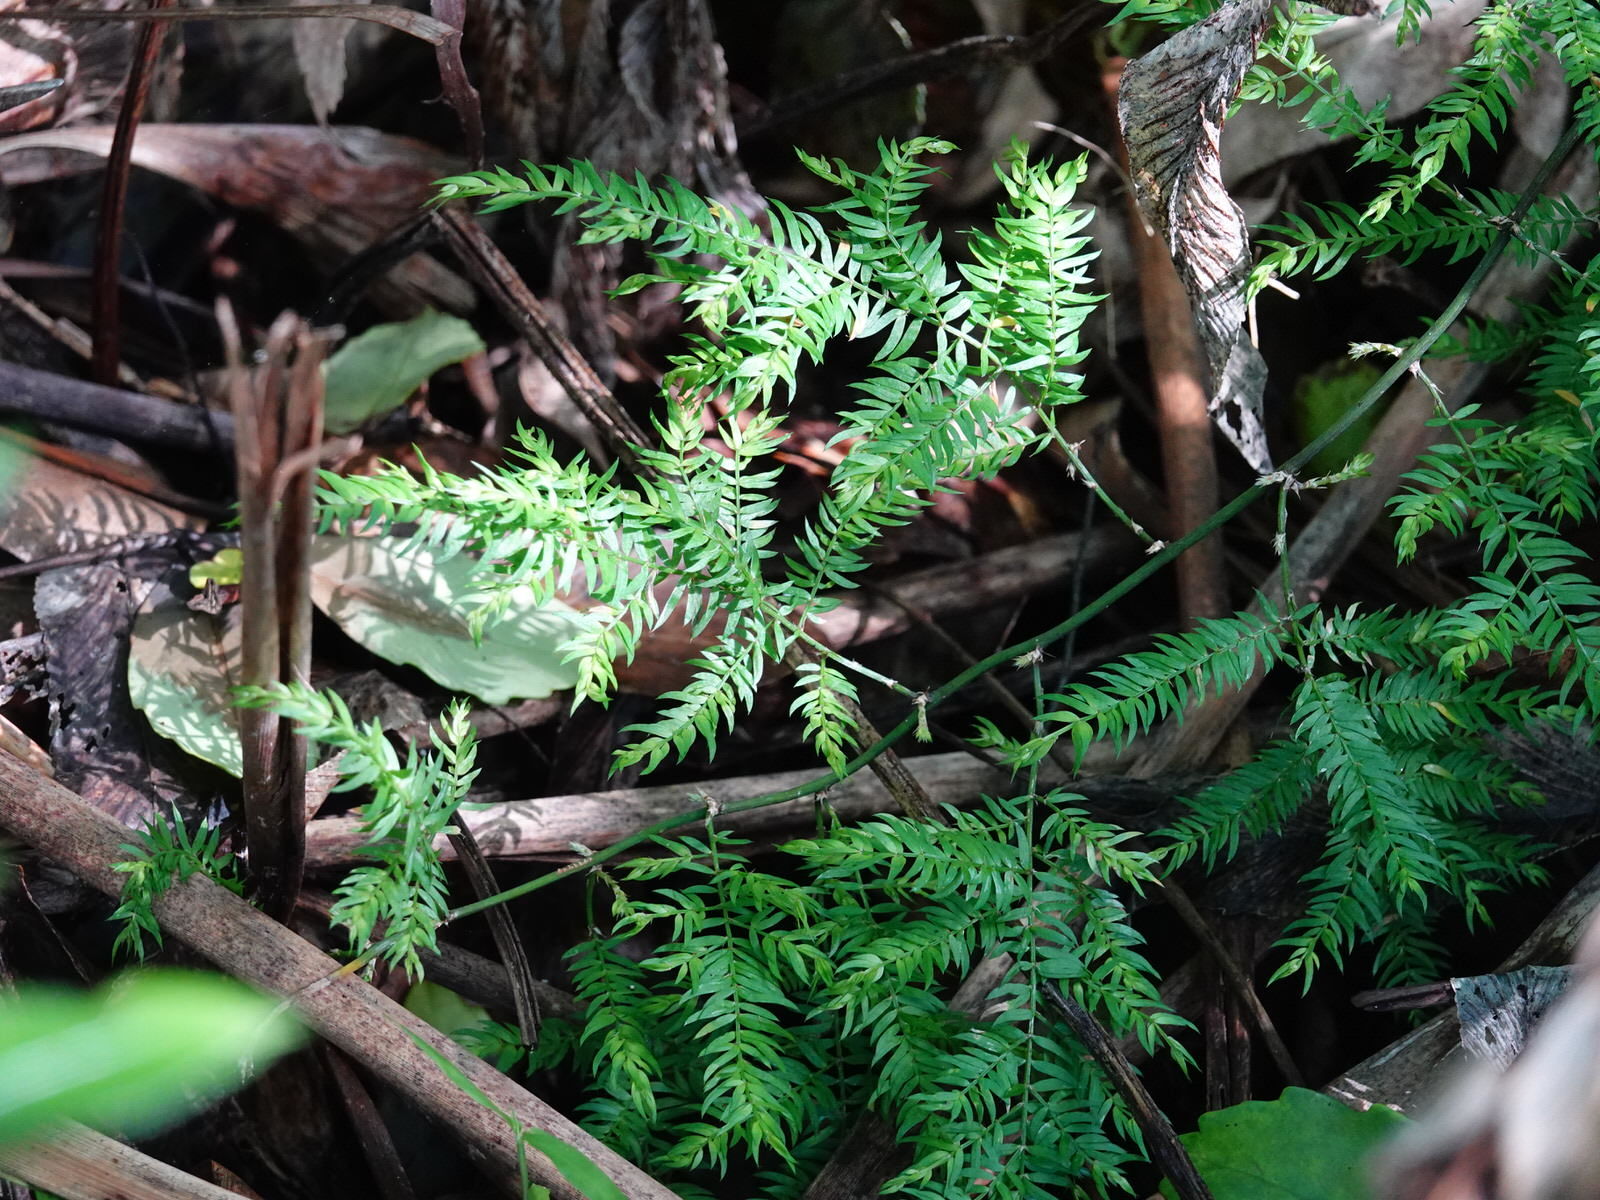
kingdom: Plantae
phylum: Tracheophyta
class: Liliopsida
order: Asparagales
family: Asparagaceae
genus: Asparagus
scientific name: Asparagus scandens
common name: Asparagus-fern
